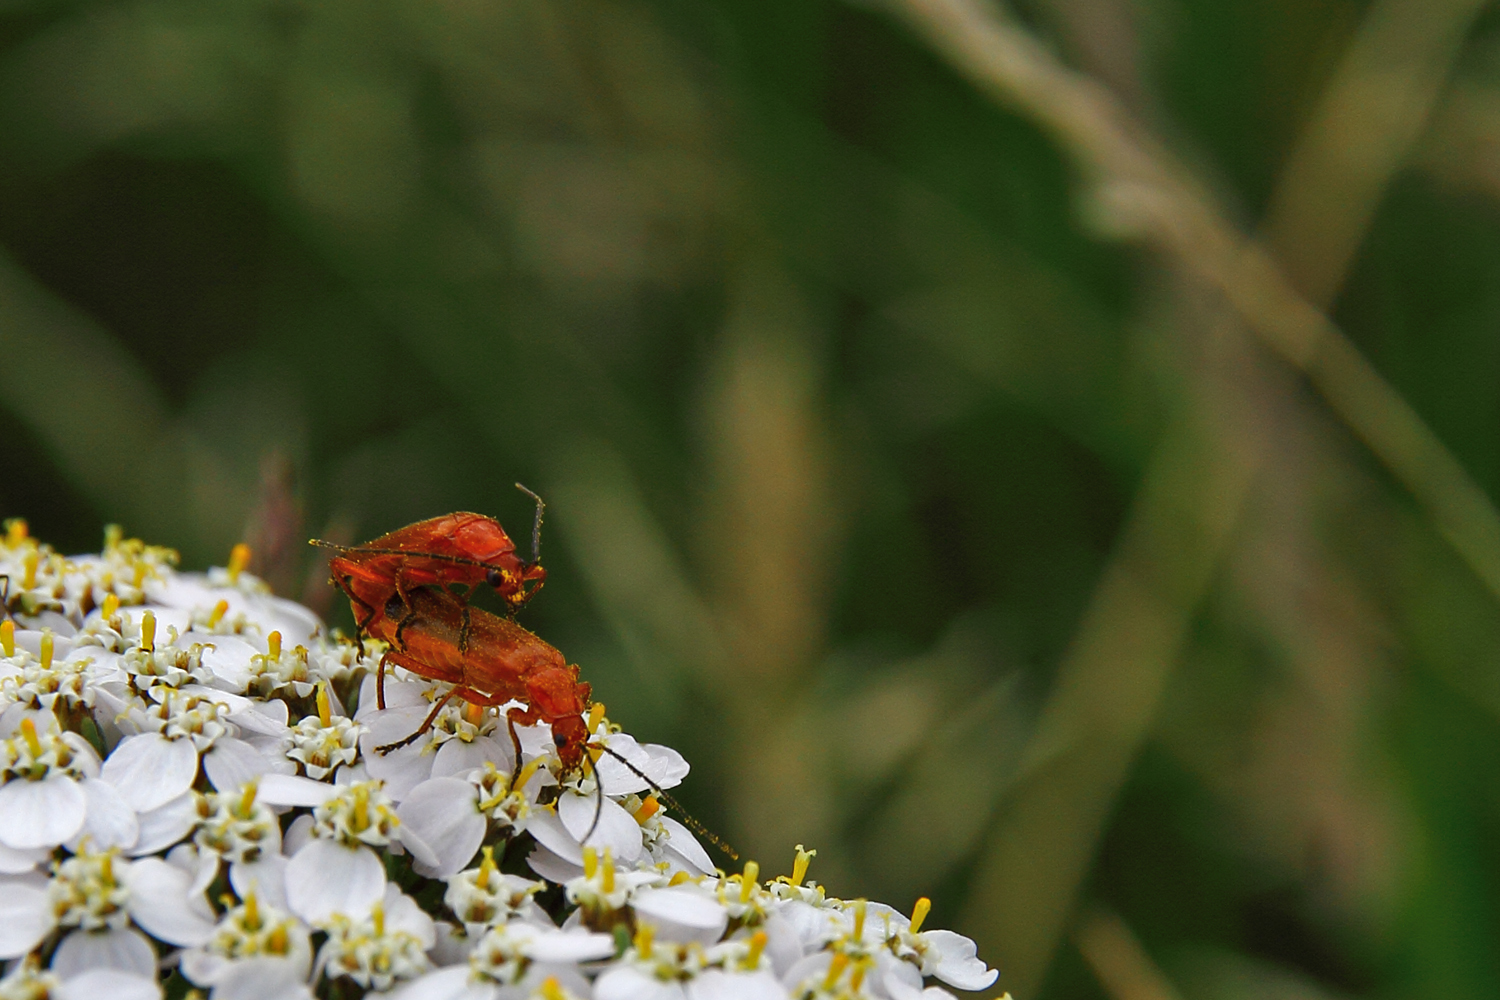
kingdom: Animalia
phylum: Arthropoda
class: Insecta
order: Coleoptera
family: Cantharidae
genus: Rhagonycha
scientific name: Rhagonycha fulva
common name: Common red soldier beetle
